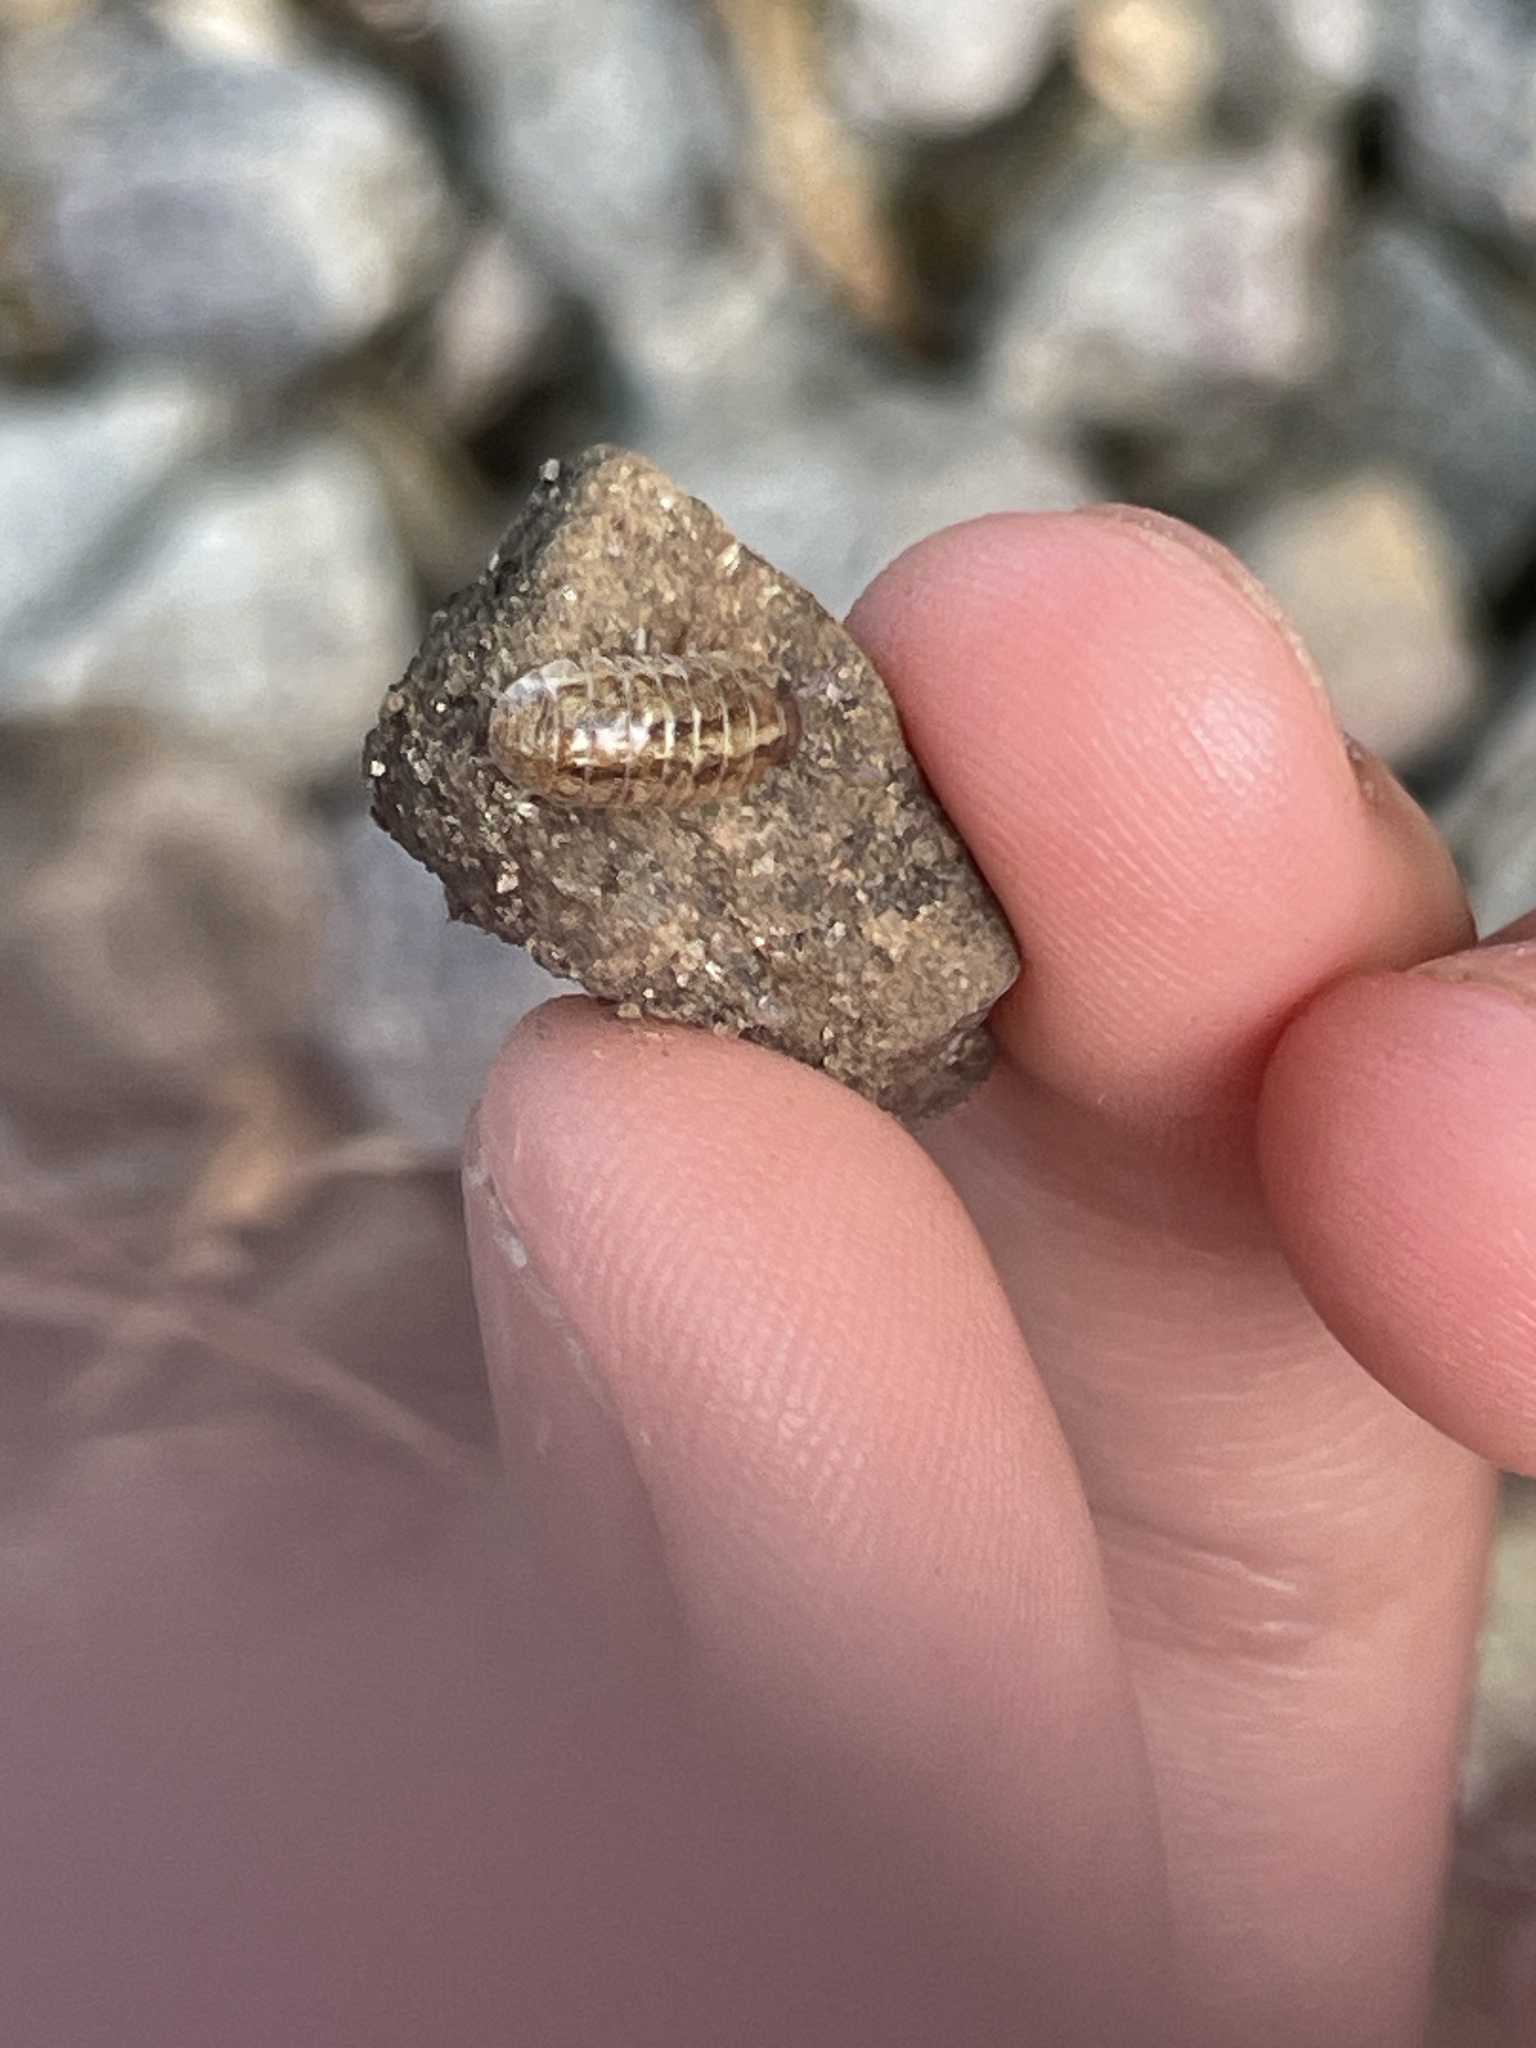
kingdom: Animalia
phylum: Arthropoda
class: Malacostraca
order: Isopoda
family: Armadillidiidae
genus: Armadillidium
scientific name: Armadillidium vulgare
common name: Common pill woodlouse
